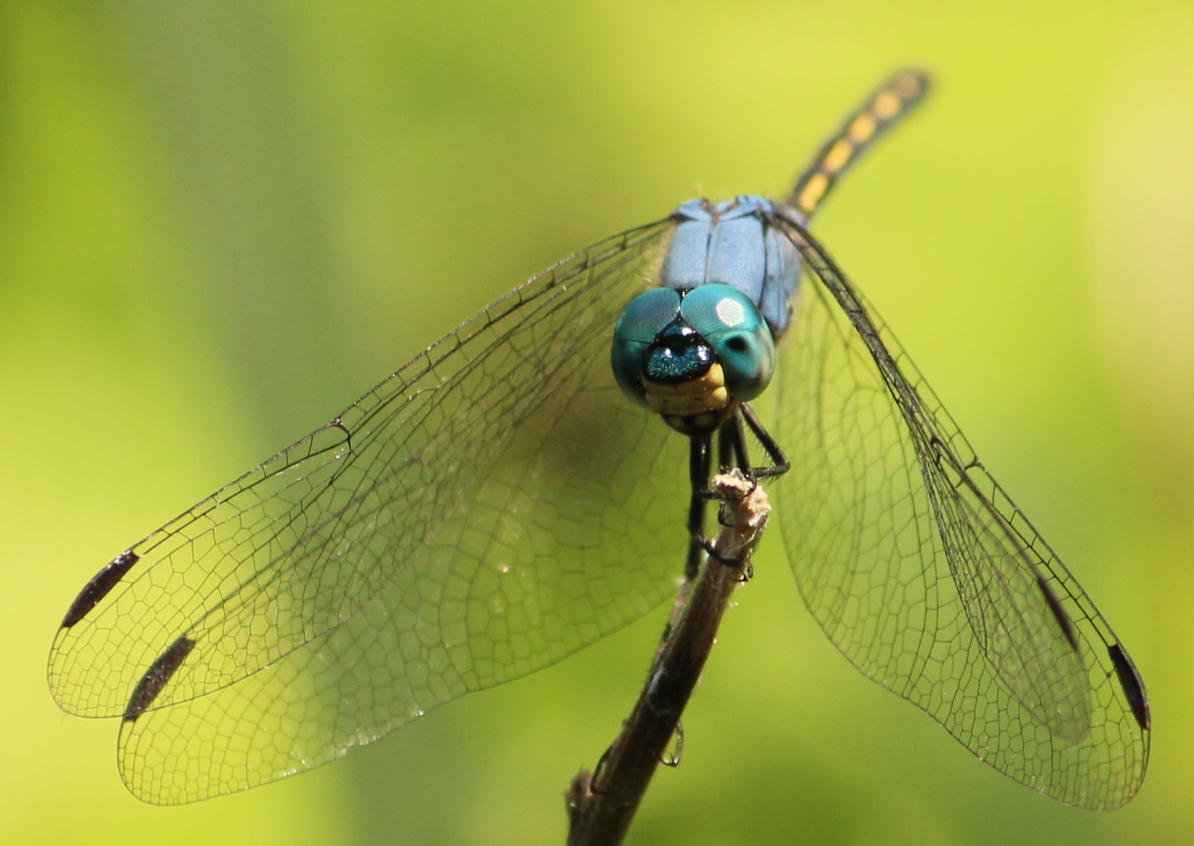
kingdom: Animalia
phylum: Arthropoda
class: Insecta
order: Odonata
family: Libellulidae
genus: Trithemis
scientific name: Trithemis stictica
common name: Jaunty dropwing
